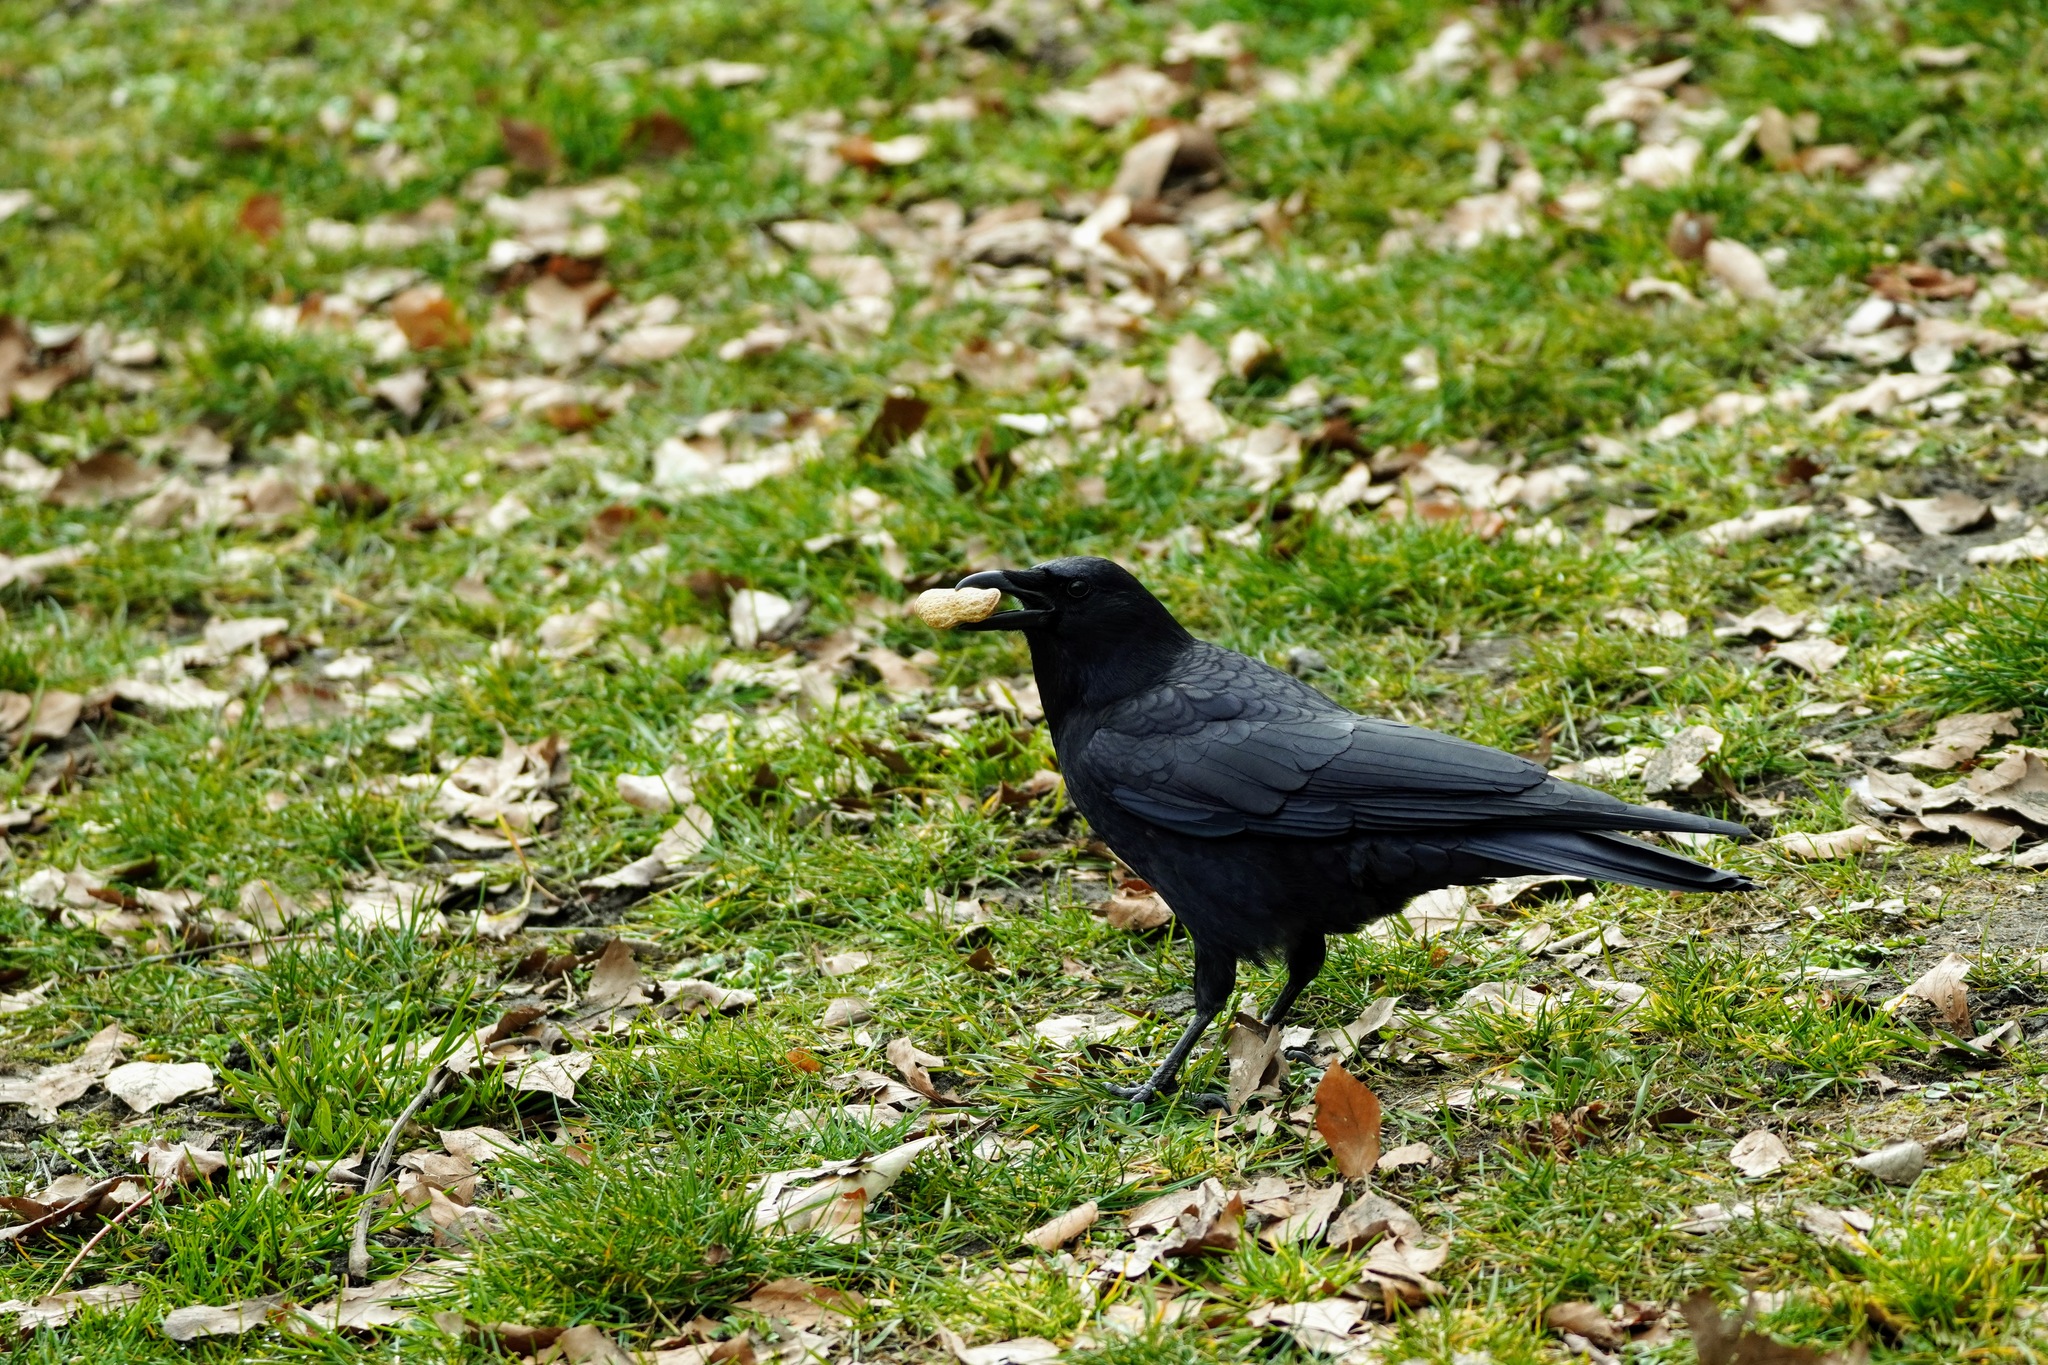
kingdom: Animalia
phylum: Chordata
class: Aves
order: Passeriformes
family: Corvidae
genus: Corvus
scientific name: Corvus brachyrhynchos
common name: American crow
